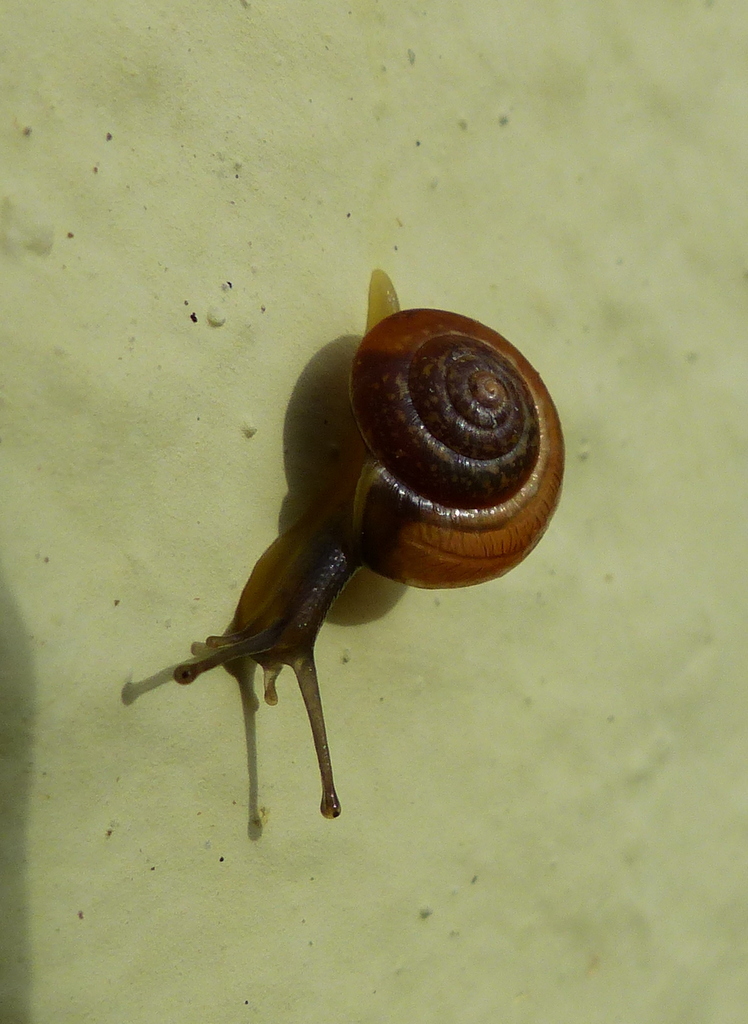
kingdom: Animalia
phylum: Mollusca
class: Gastropoda
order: Stylommatophora
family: Hygromiidae
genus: Hygromia
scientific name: Hygromia cinctella
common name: Girdled snail
